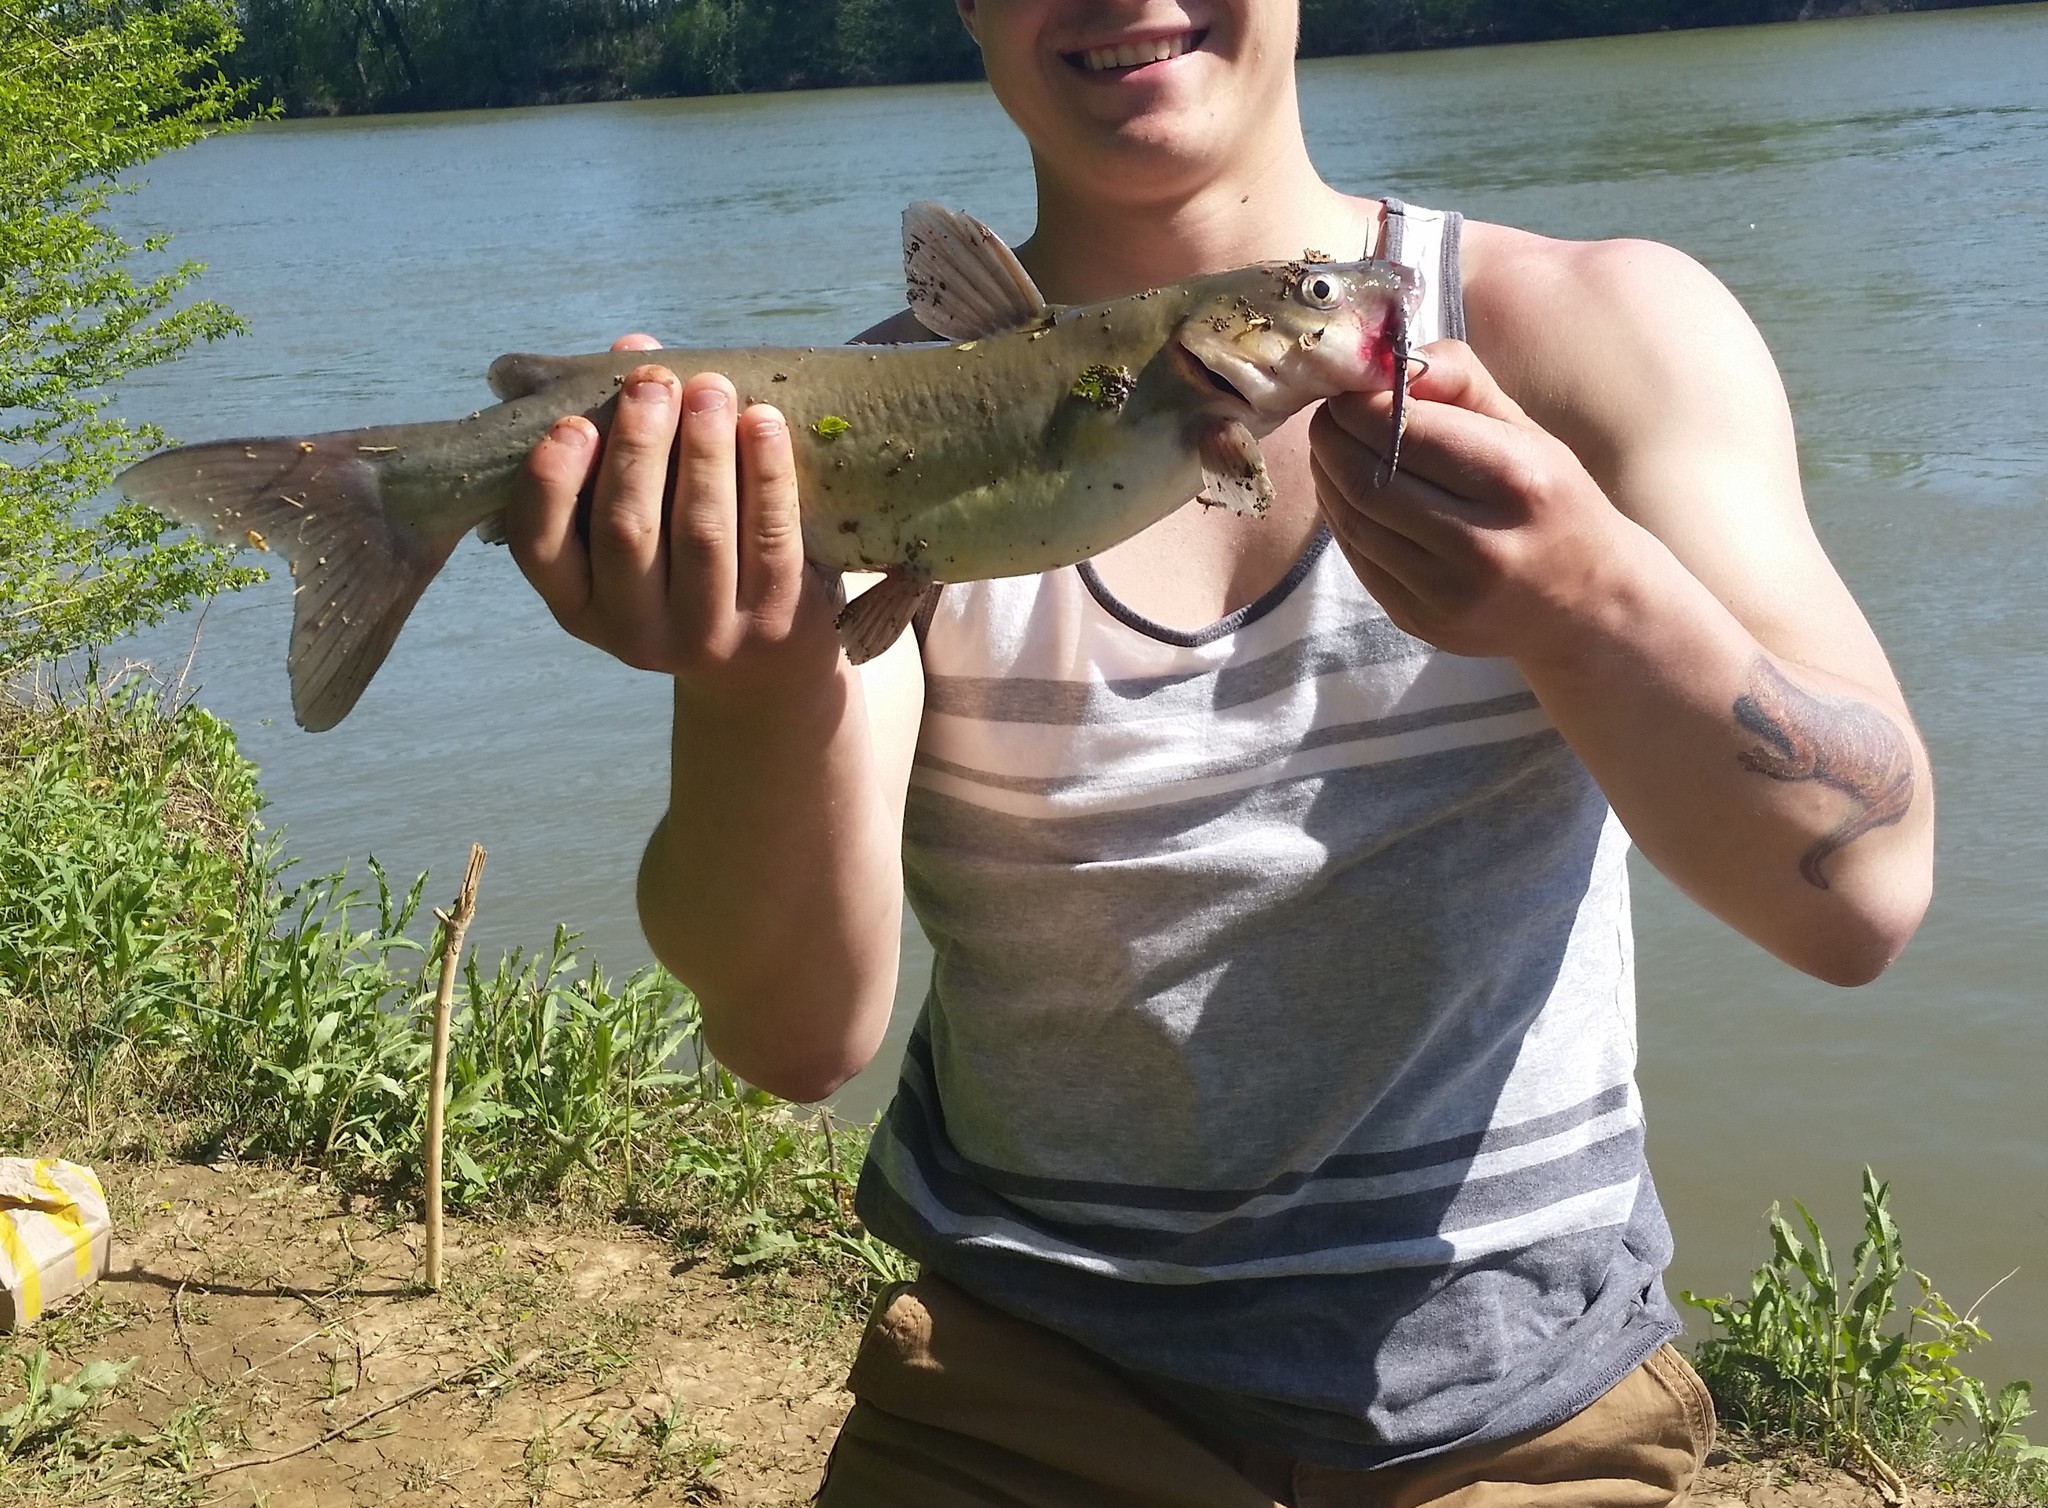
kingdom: Animalia
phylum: Chordata
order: Siluriformes
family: Ictaluridae
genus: Ictalurus
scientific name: Ictalurus punctatus
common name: Channel catfish
